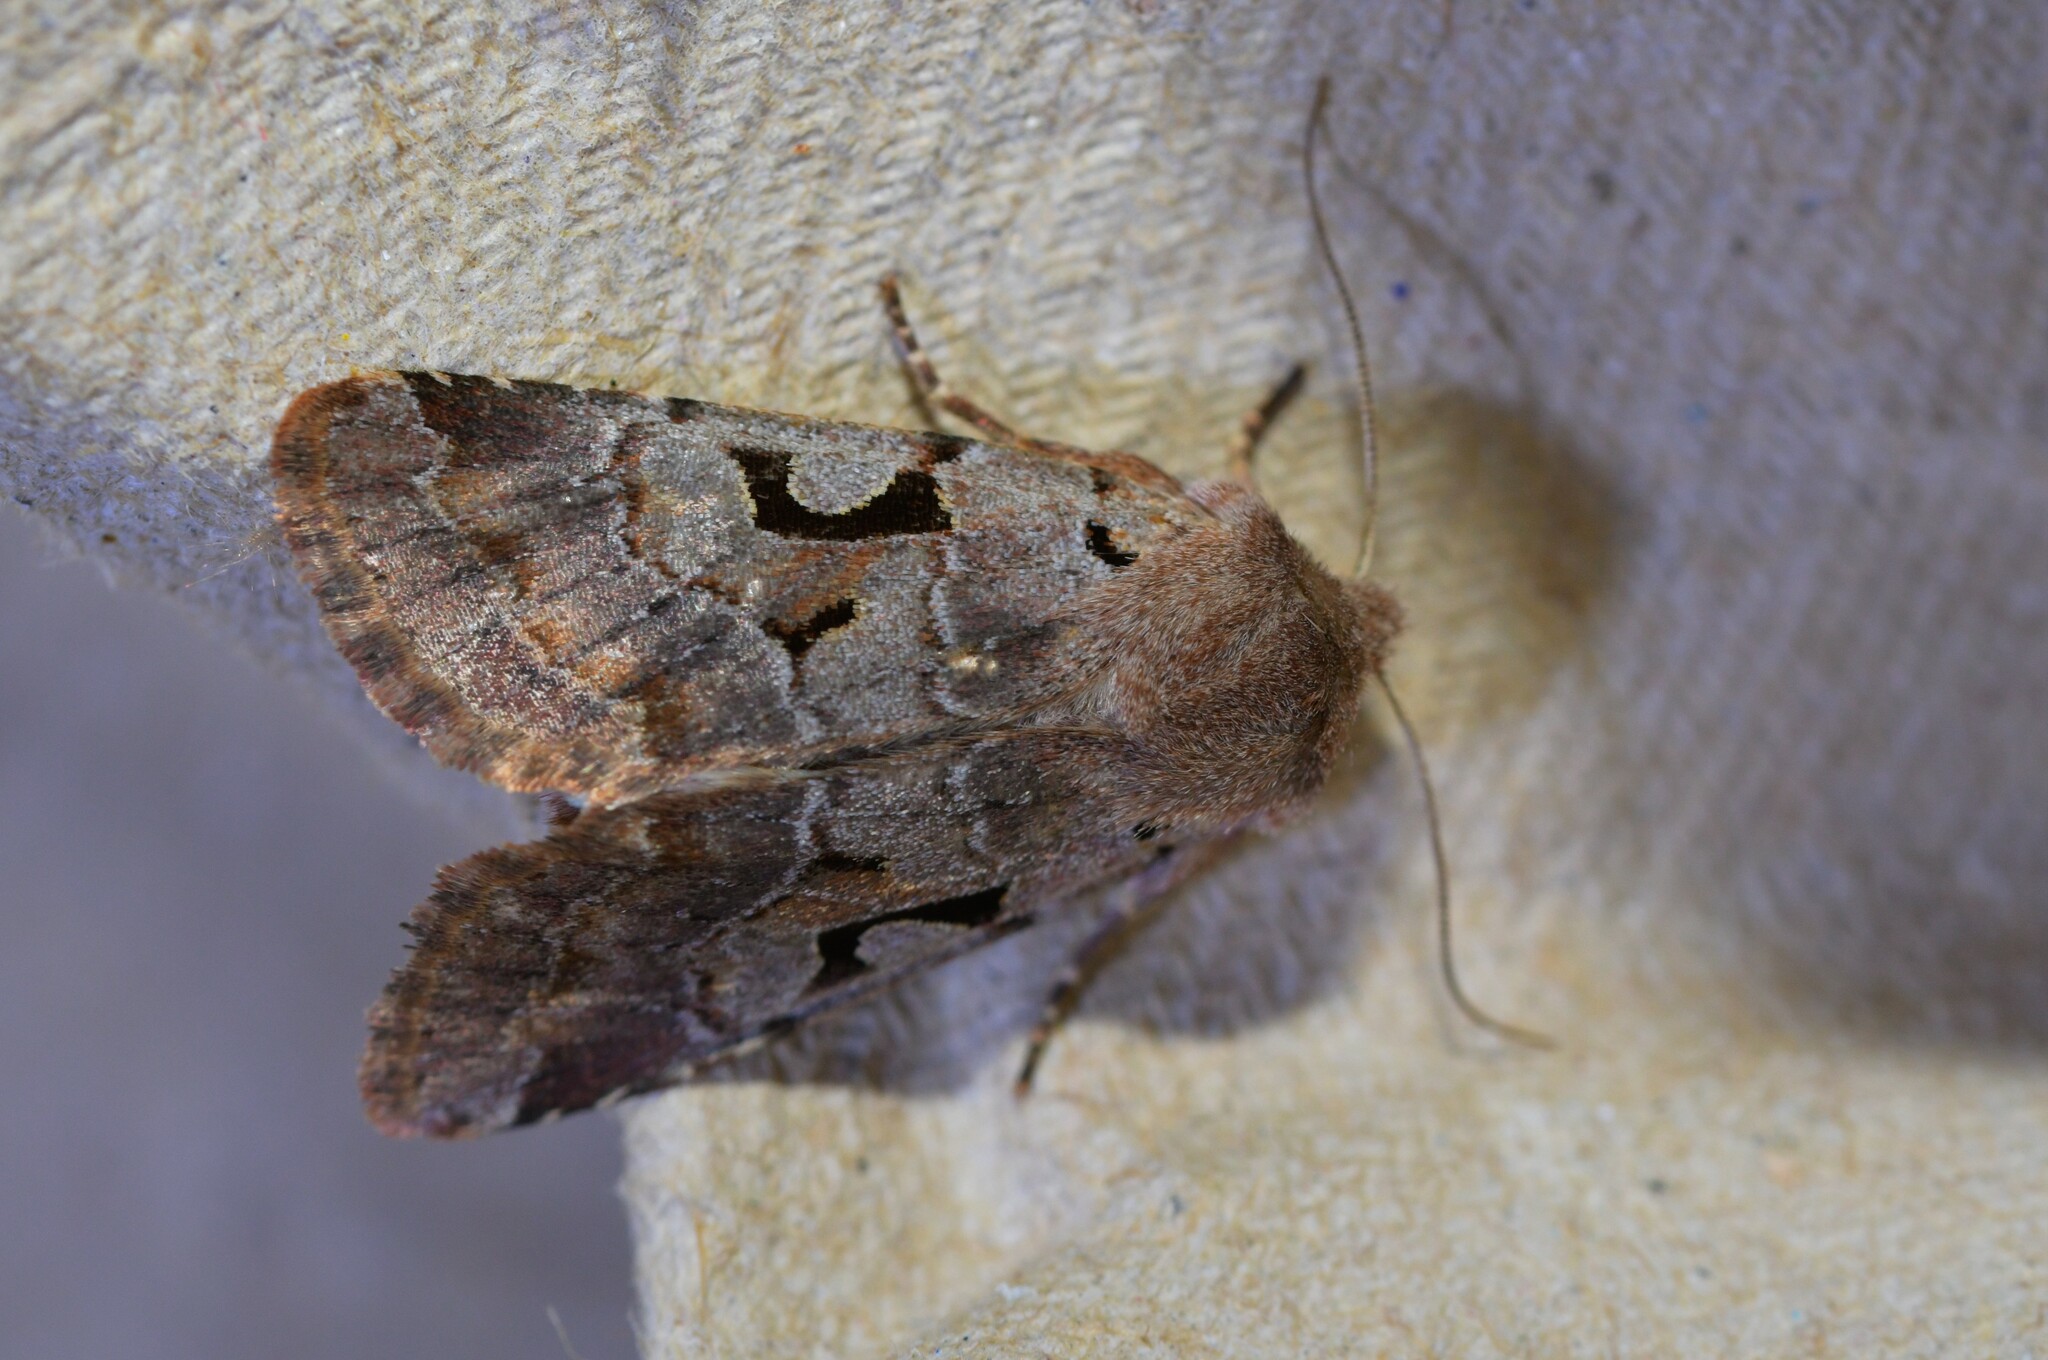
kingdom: Animalia
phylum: Arthropoda
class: Insecta
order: Lepidoptera
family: Noctuidae
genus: Orthosia
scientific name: Orthosia gothica
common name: Hebrew character
